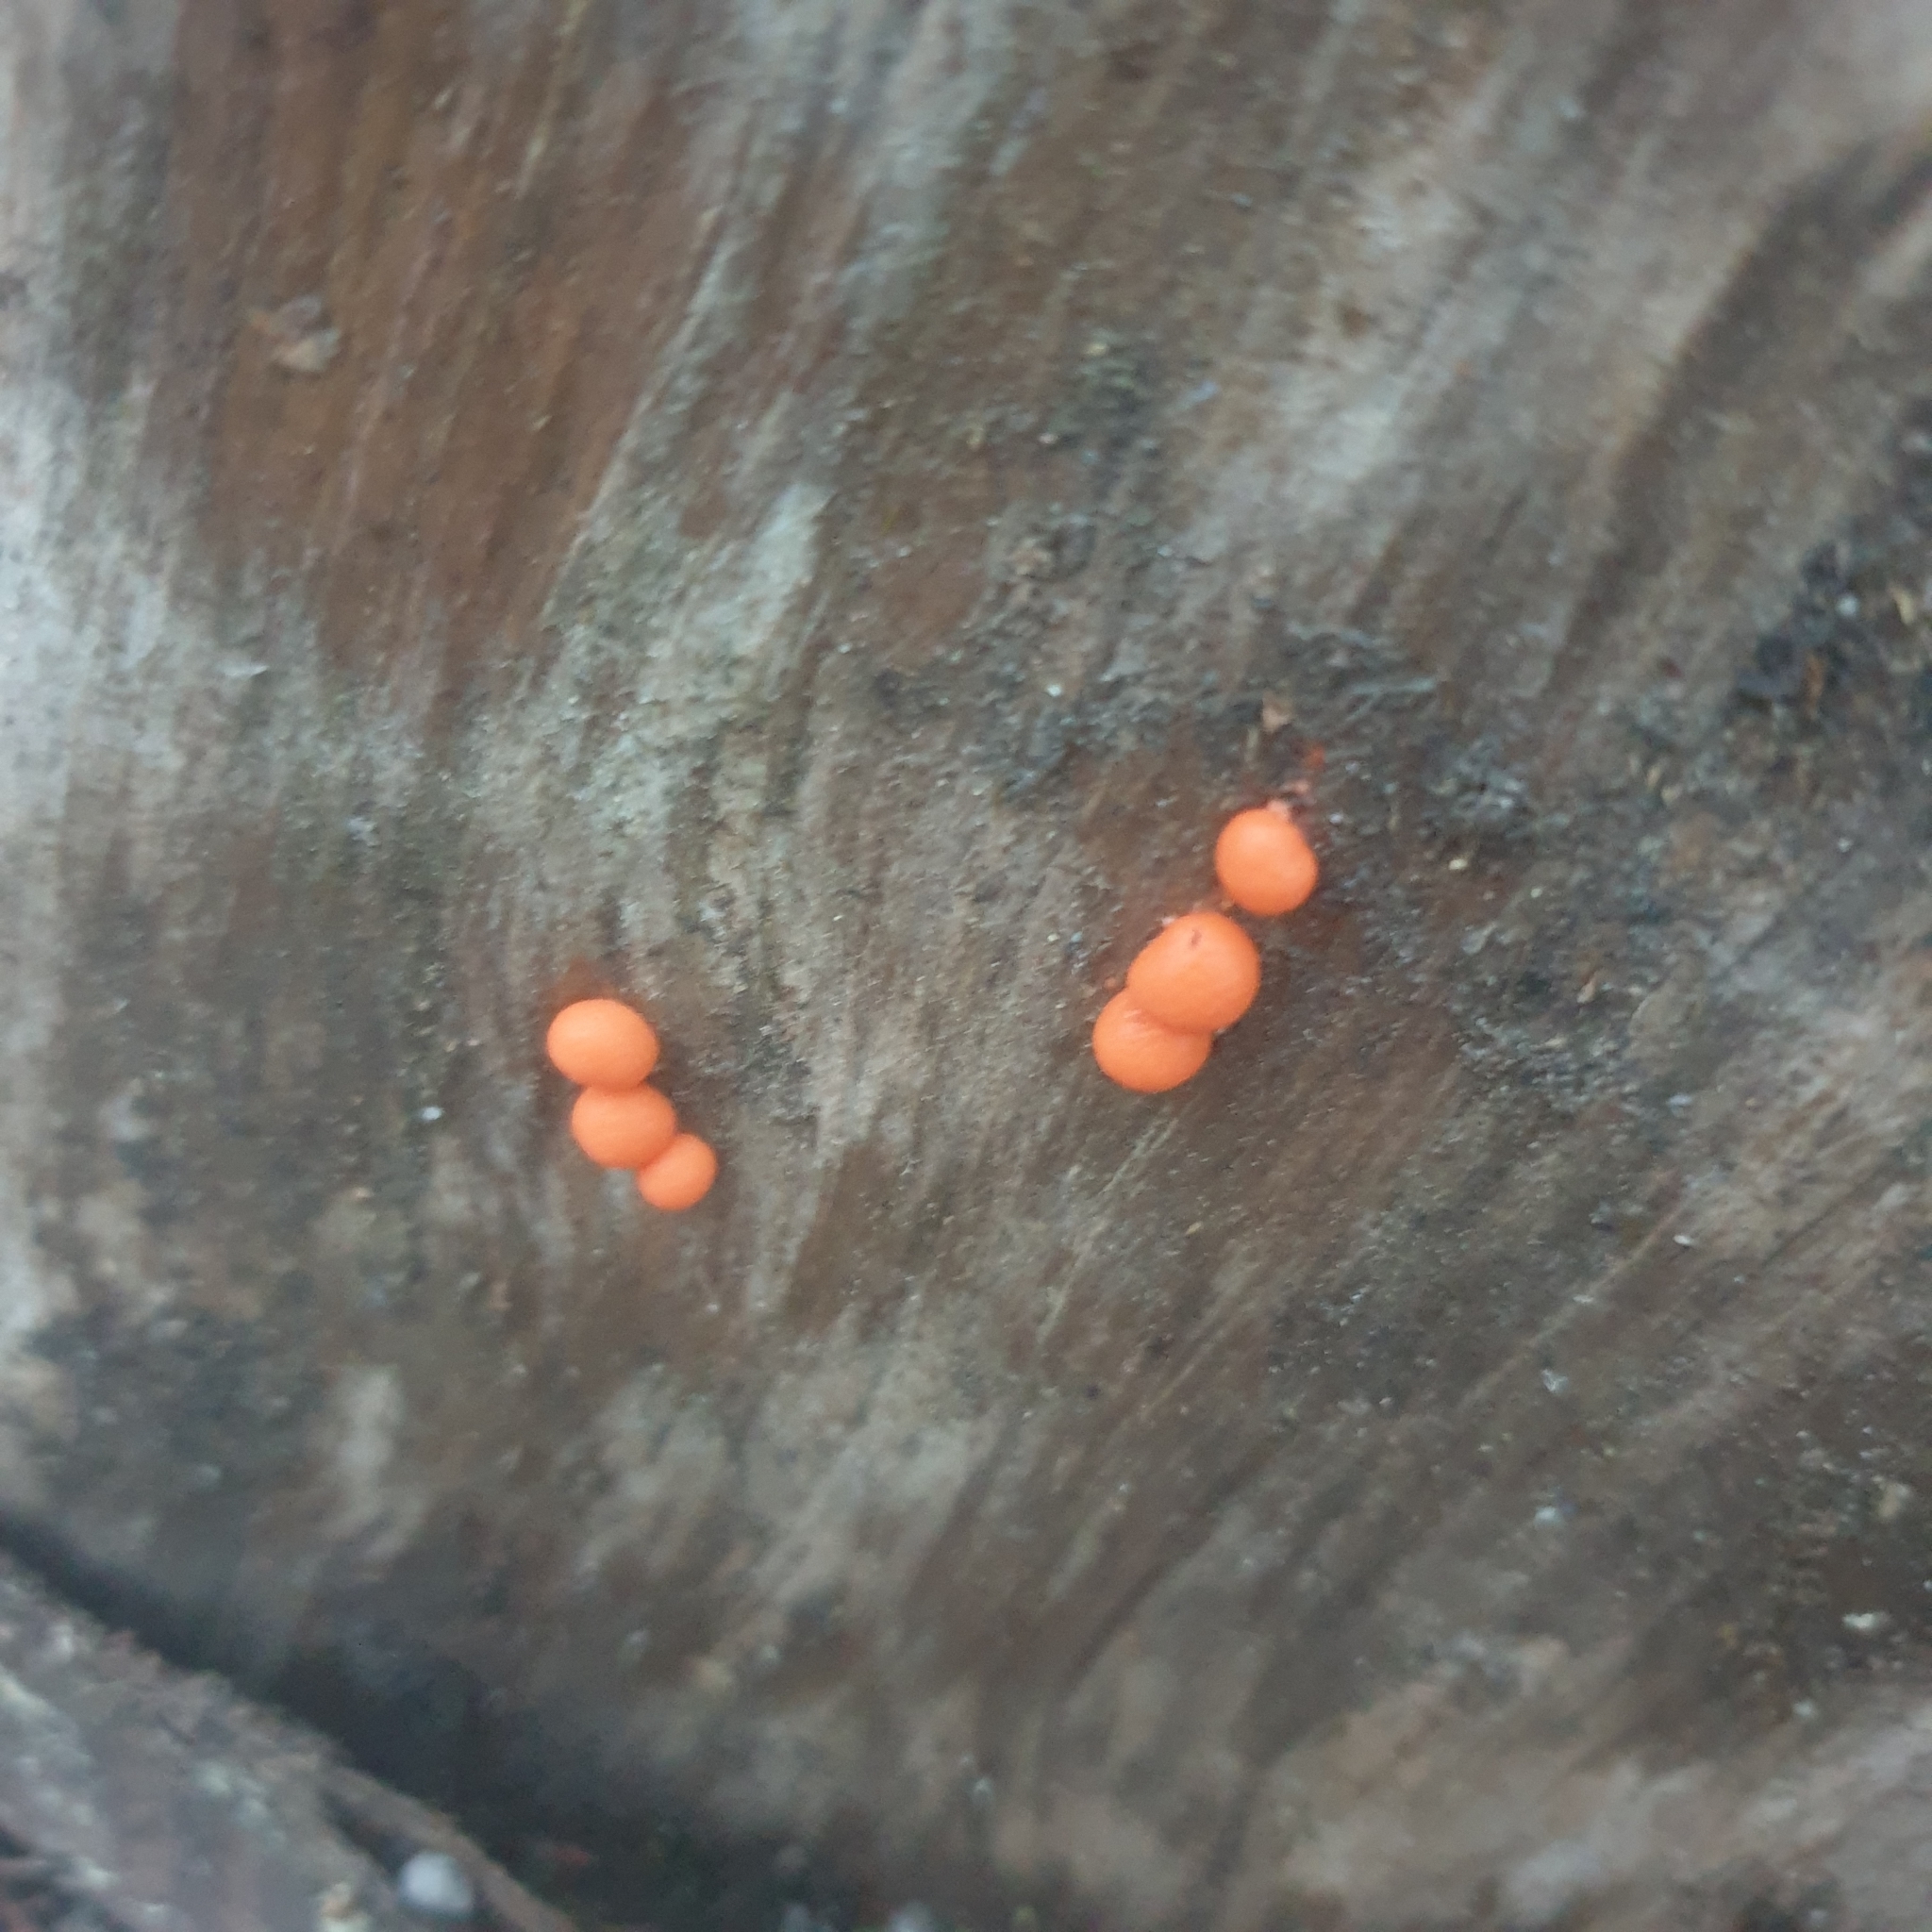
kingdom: Protozoa
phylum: Mycetozoa
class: Myxomycetes
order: Cribrariales
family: Tubiferaceae
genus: Lycogala
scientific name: Lycogala epidendrum
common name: Wolf's milk
